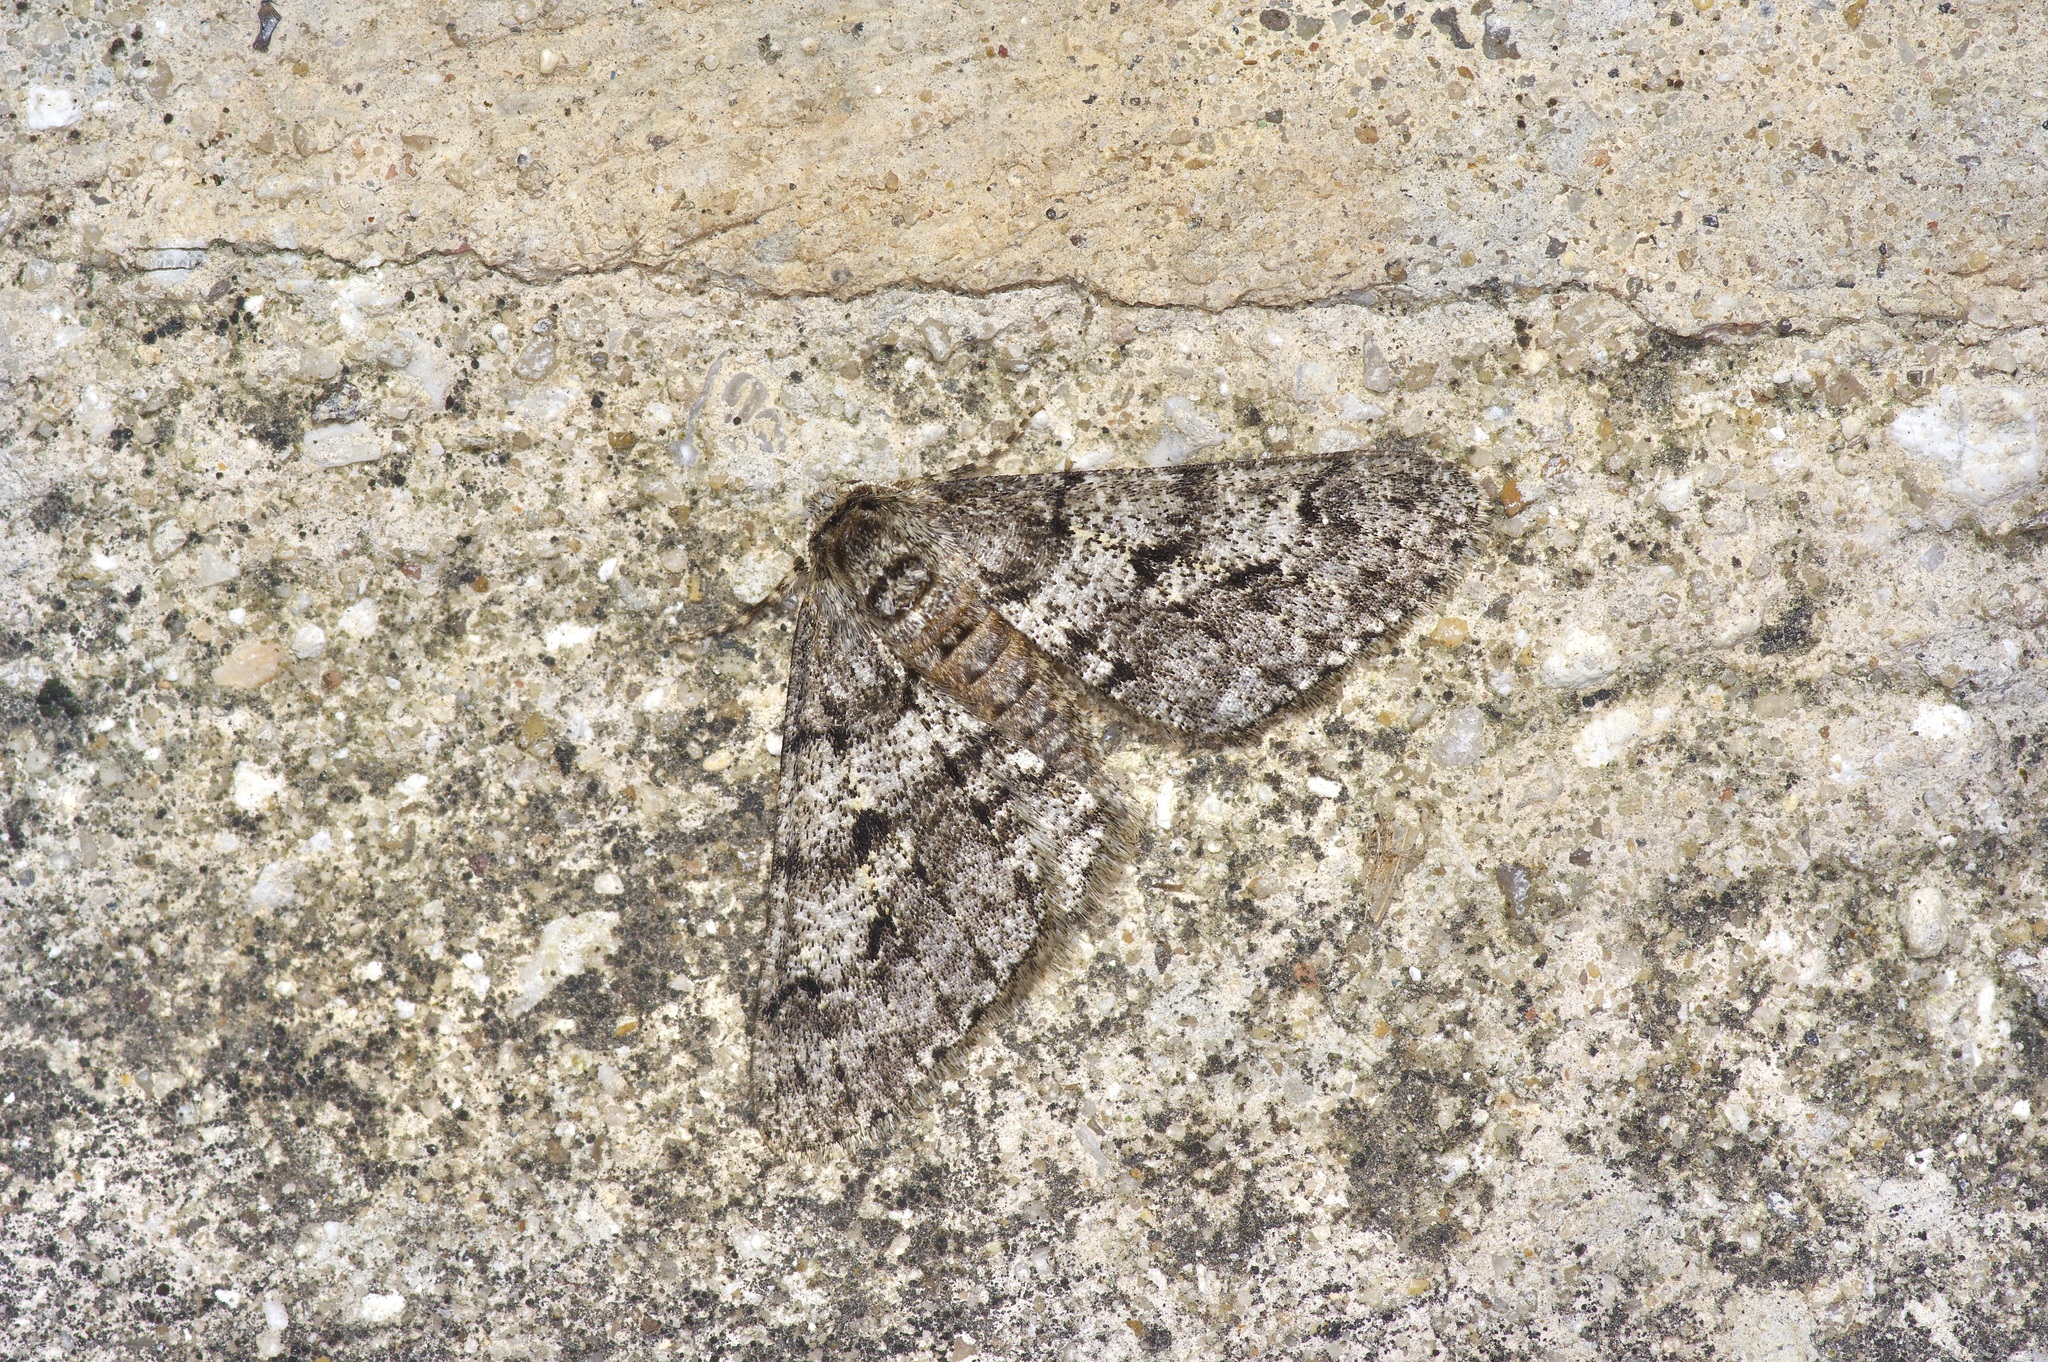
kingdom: Animalia
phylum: Arthropoda
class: Insecta
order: Lepidoptera
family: Geometridae
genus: Phigalia
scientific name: Phigalia titea
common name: Spiny looper
